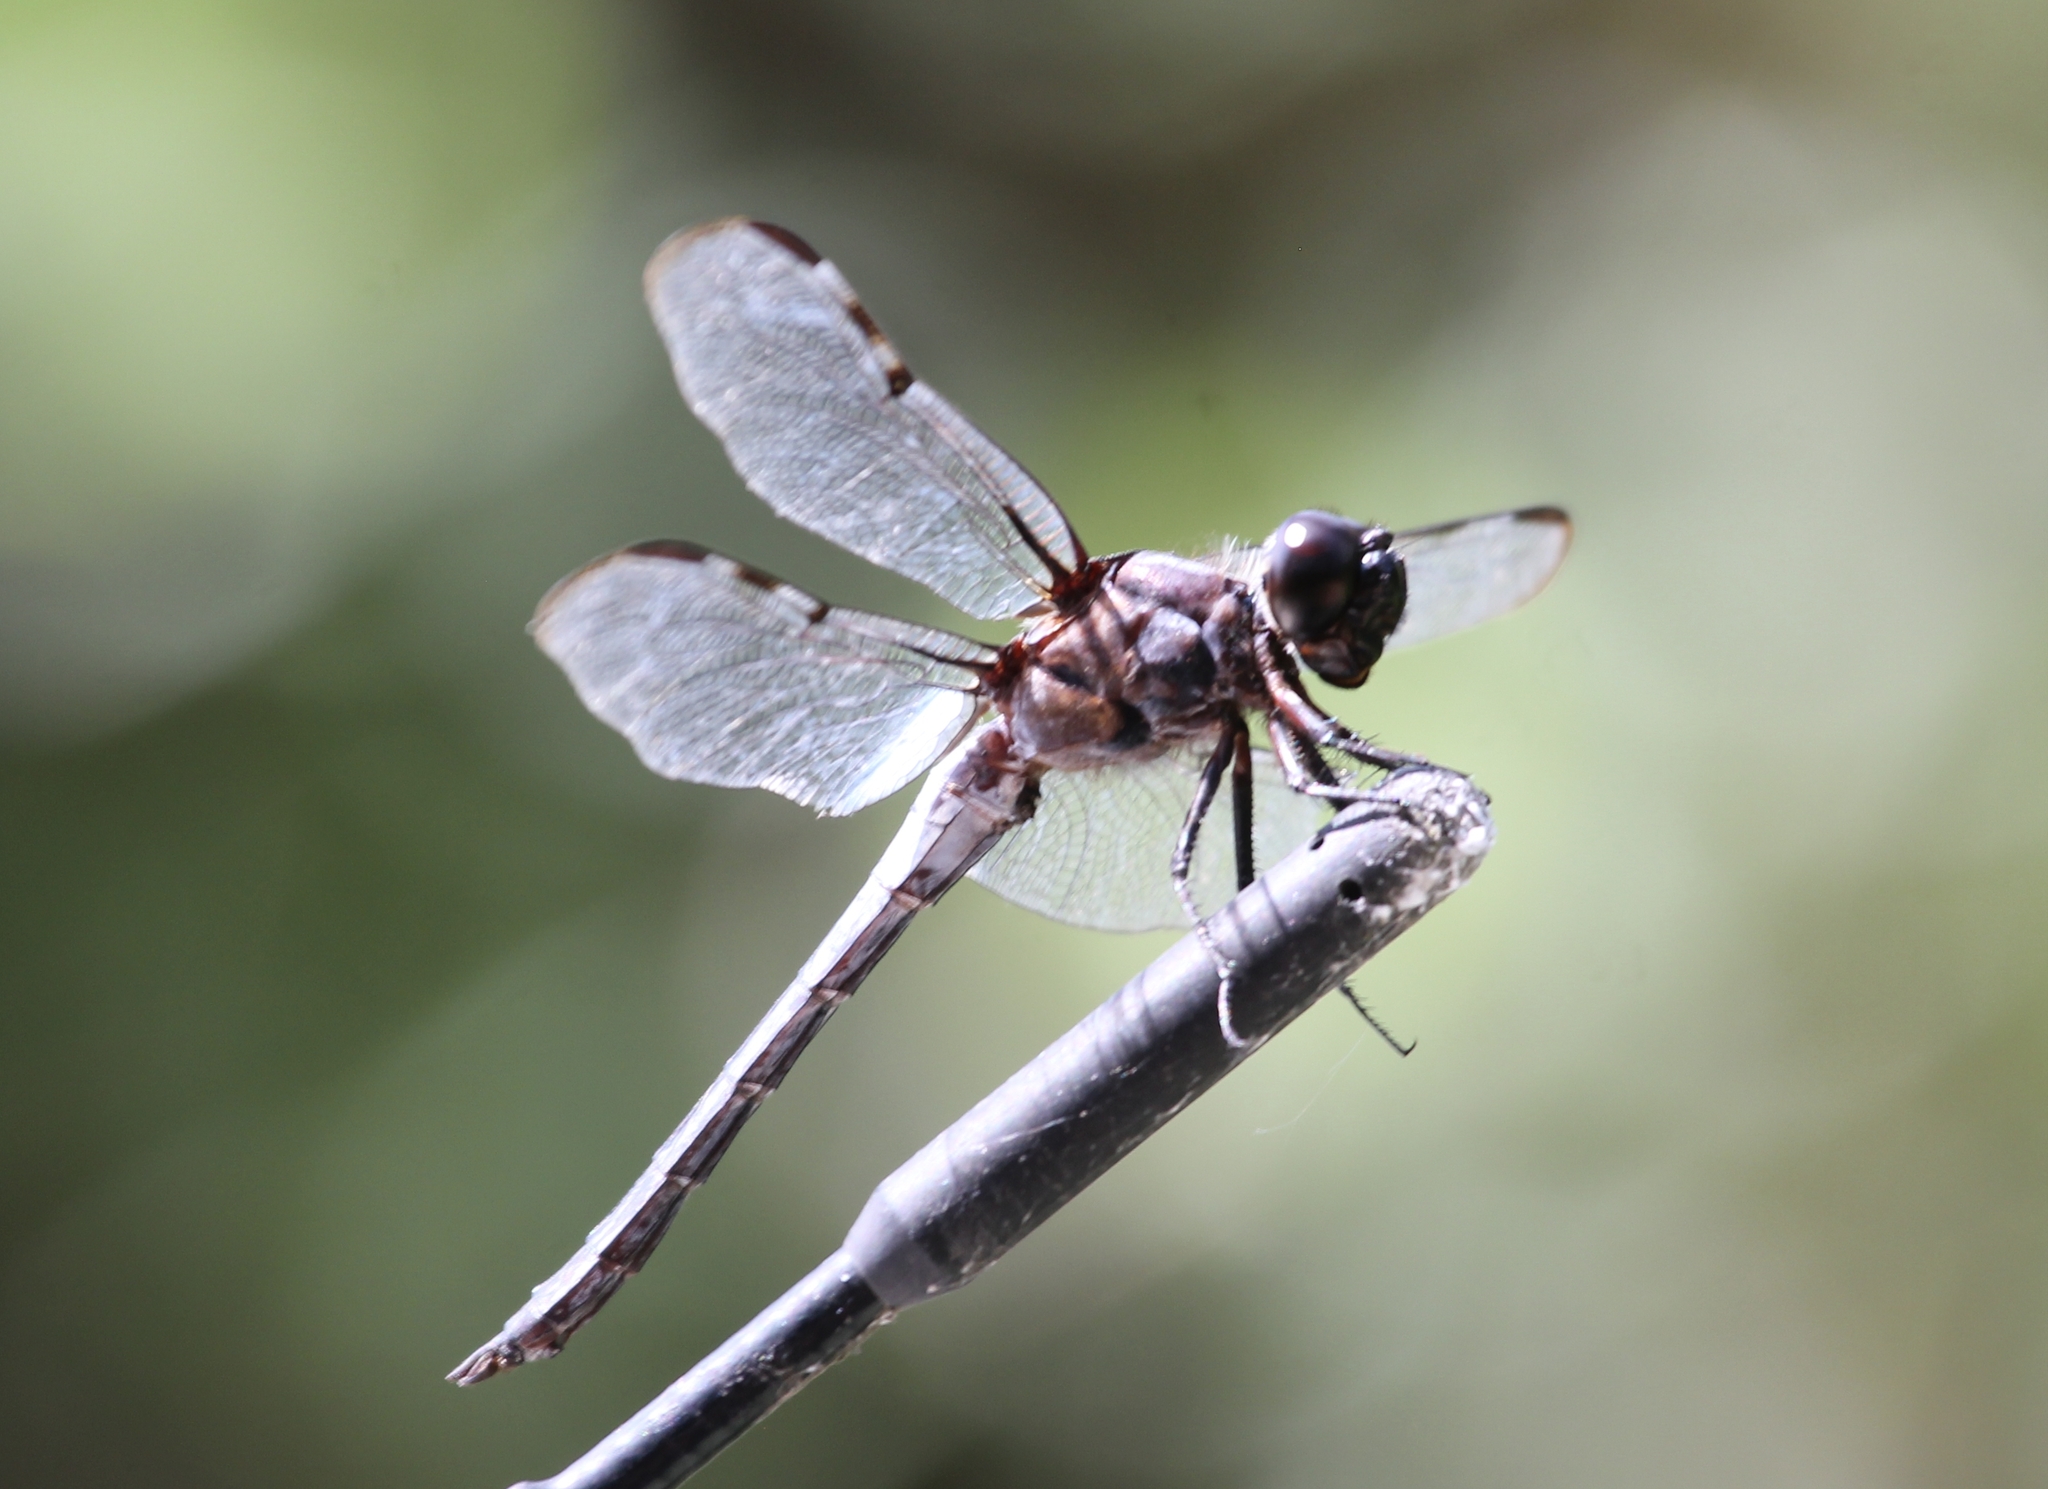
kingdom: Animalia
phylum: Arthropoda
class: Insecta
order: Odonata
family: Libellulidae
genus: Libellula
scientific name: Libellula axilena
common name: Bar-winged skimmer
